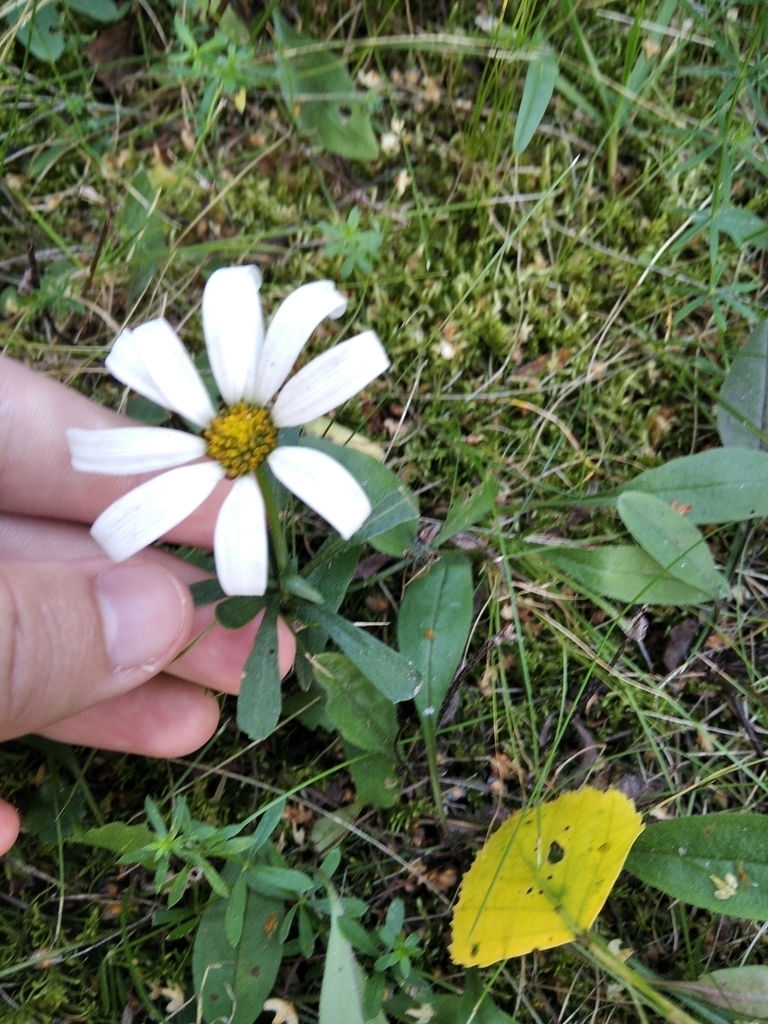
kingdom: Plantae
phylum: Tracheophyta
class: Magnoliopsida
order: Asterales
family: Asteraceae
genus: Leucanthemum
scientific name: Leucanthemum vulgare
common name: Oxeye daisy
